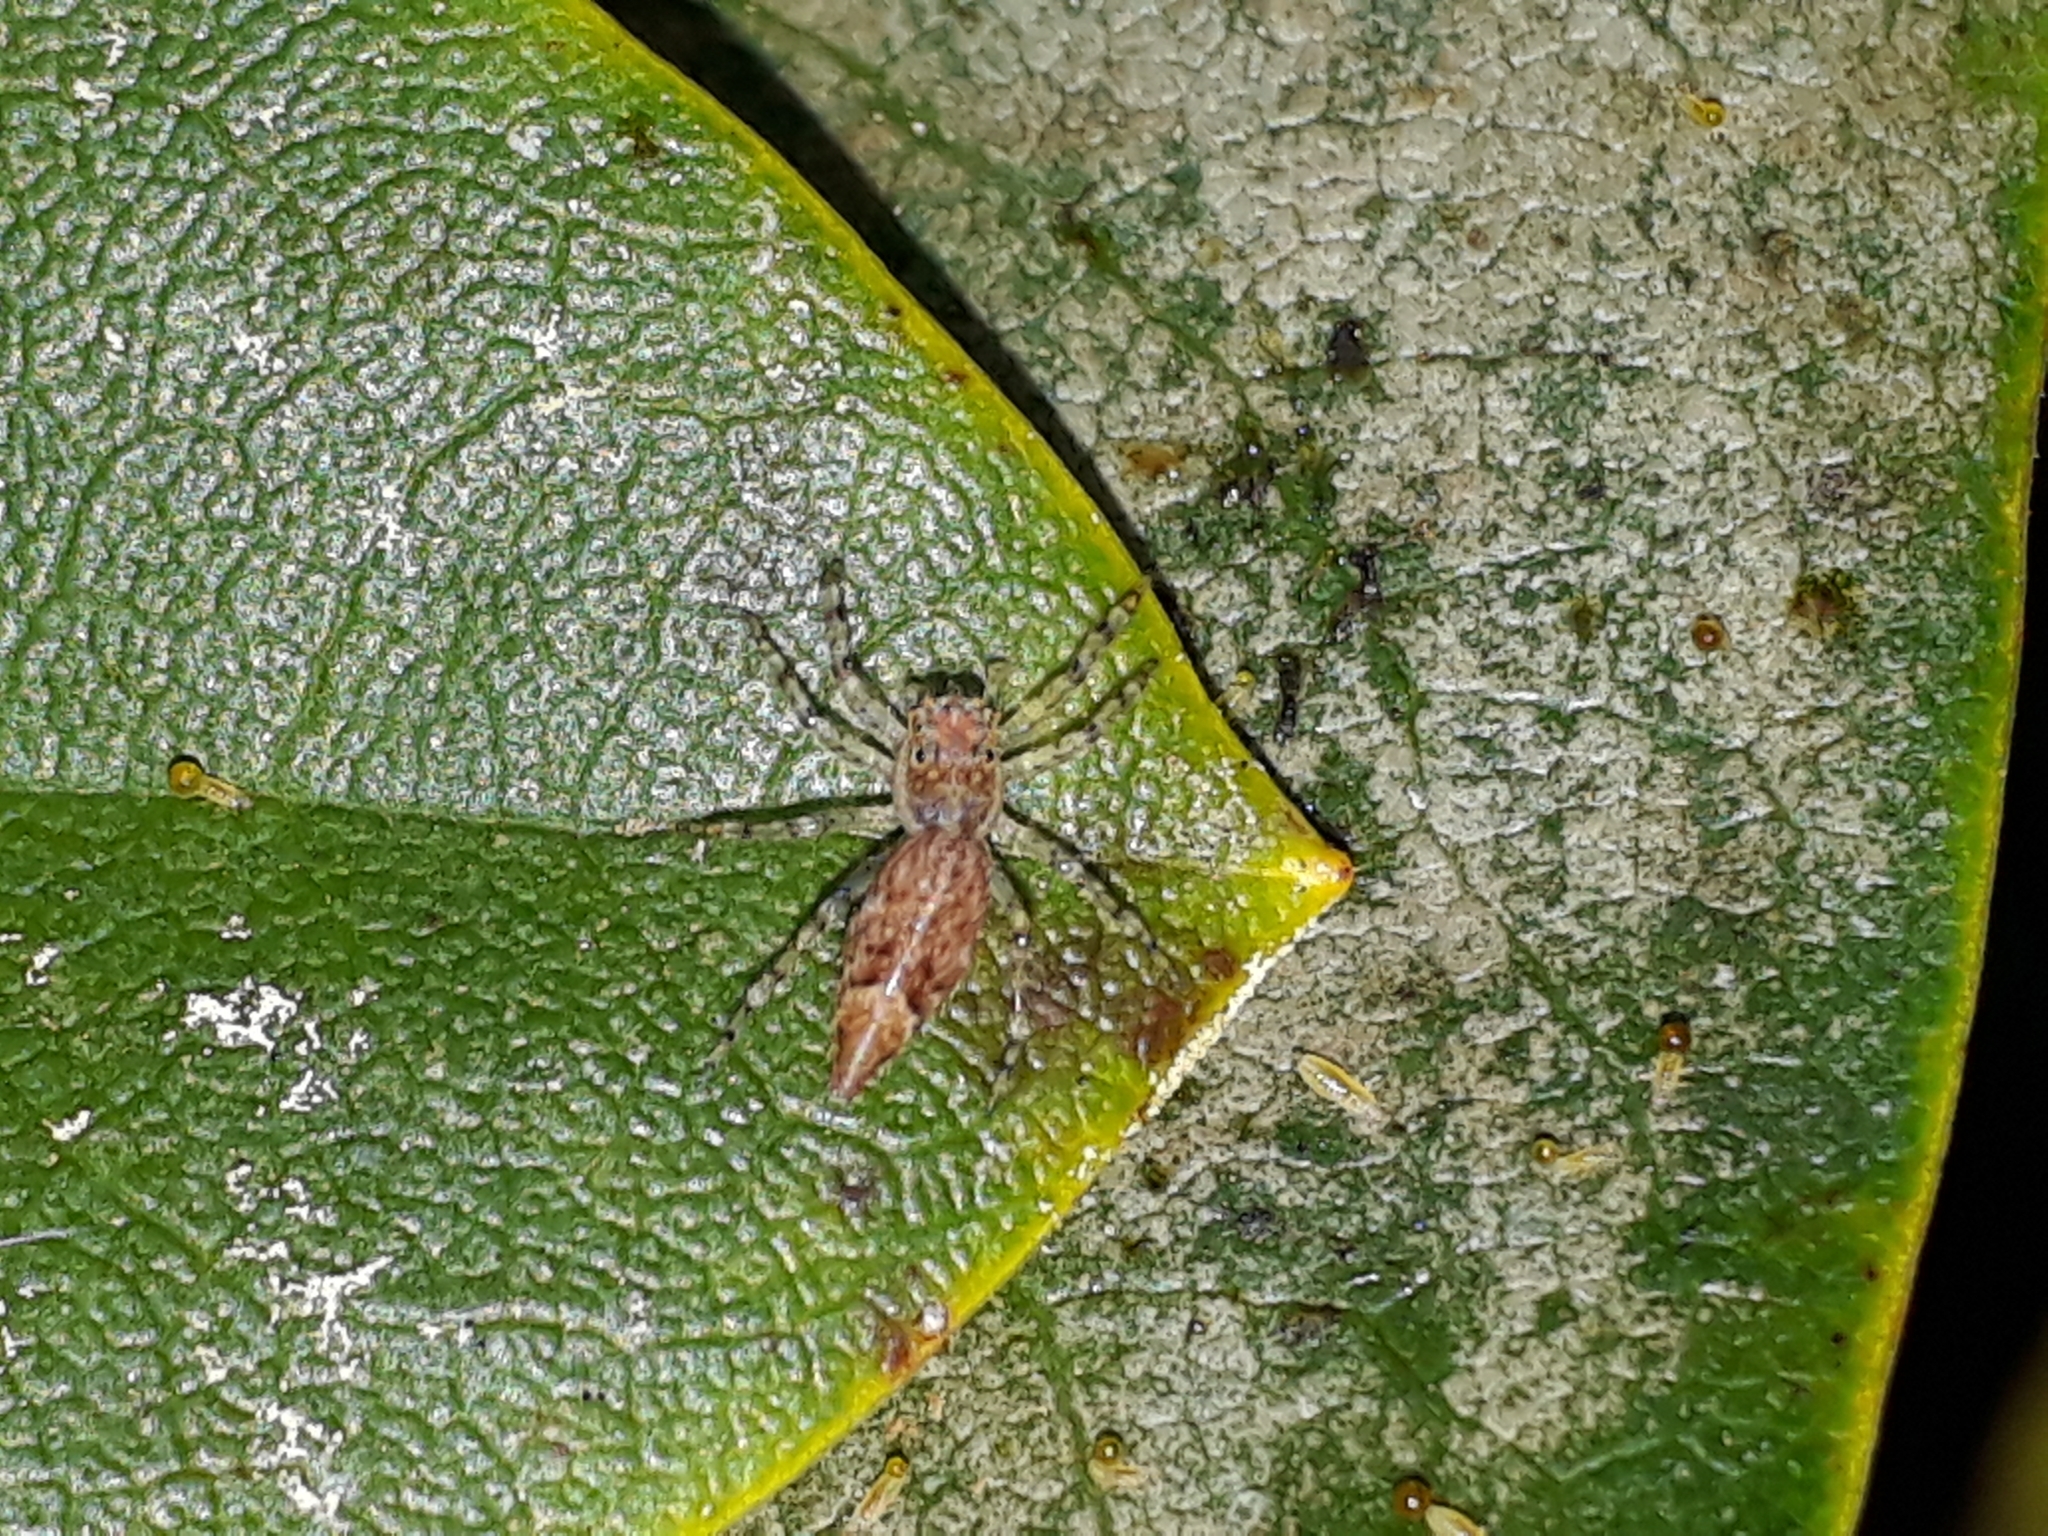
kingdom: Animalia
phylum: Arthropoda
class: Arachnida
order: Araneae
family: Salticidae
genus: Helpis
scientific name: Helpis minitabunda
